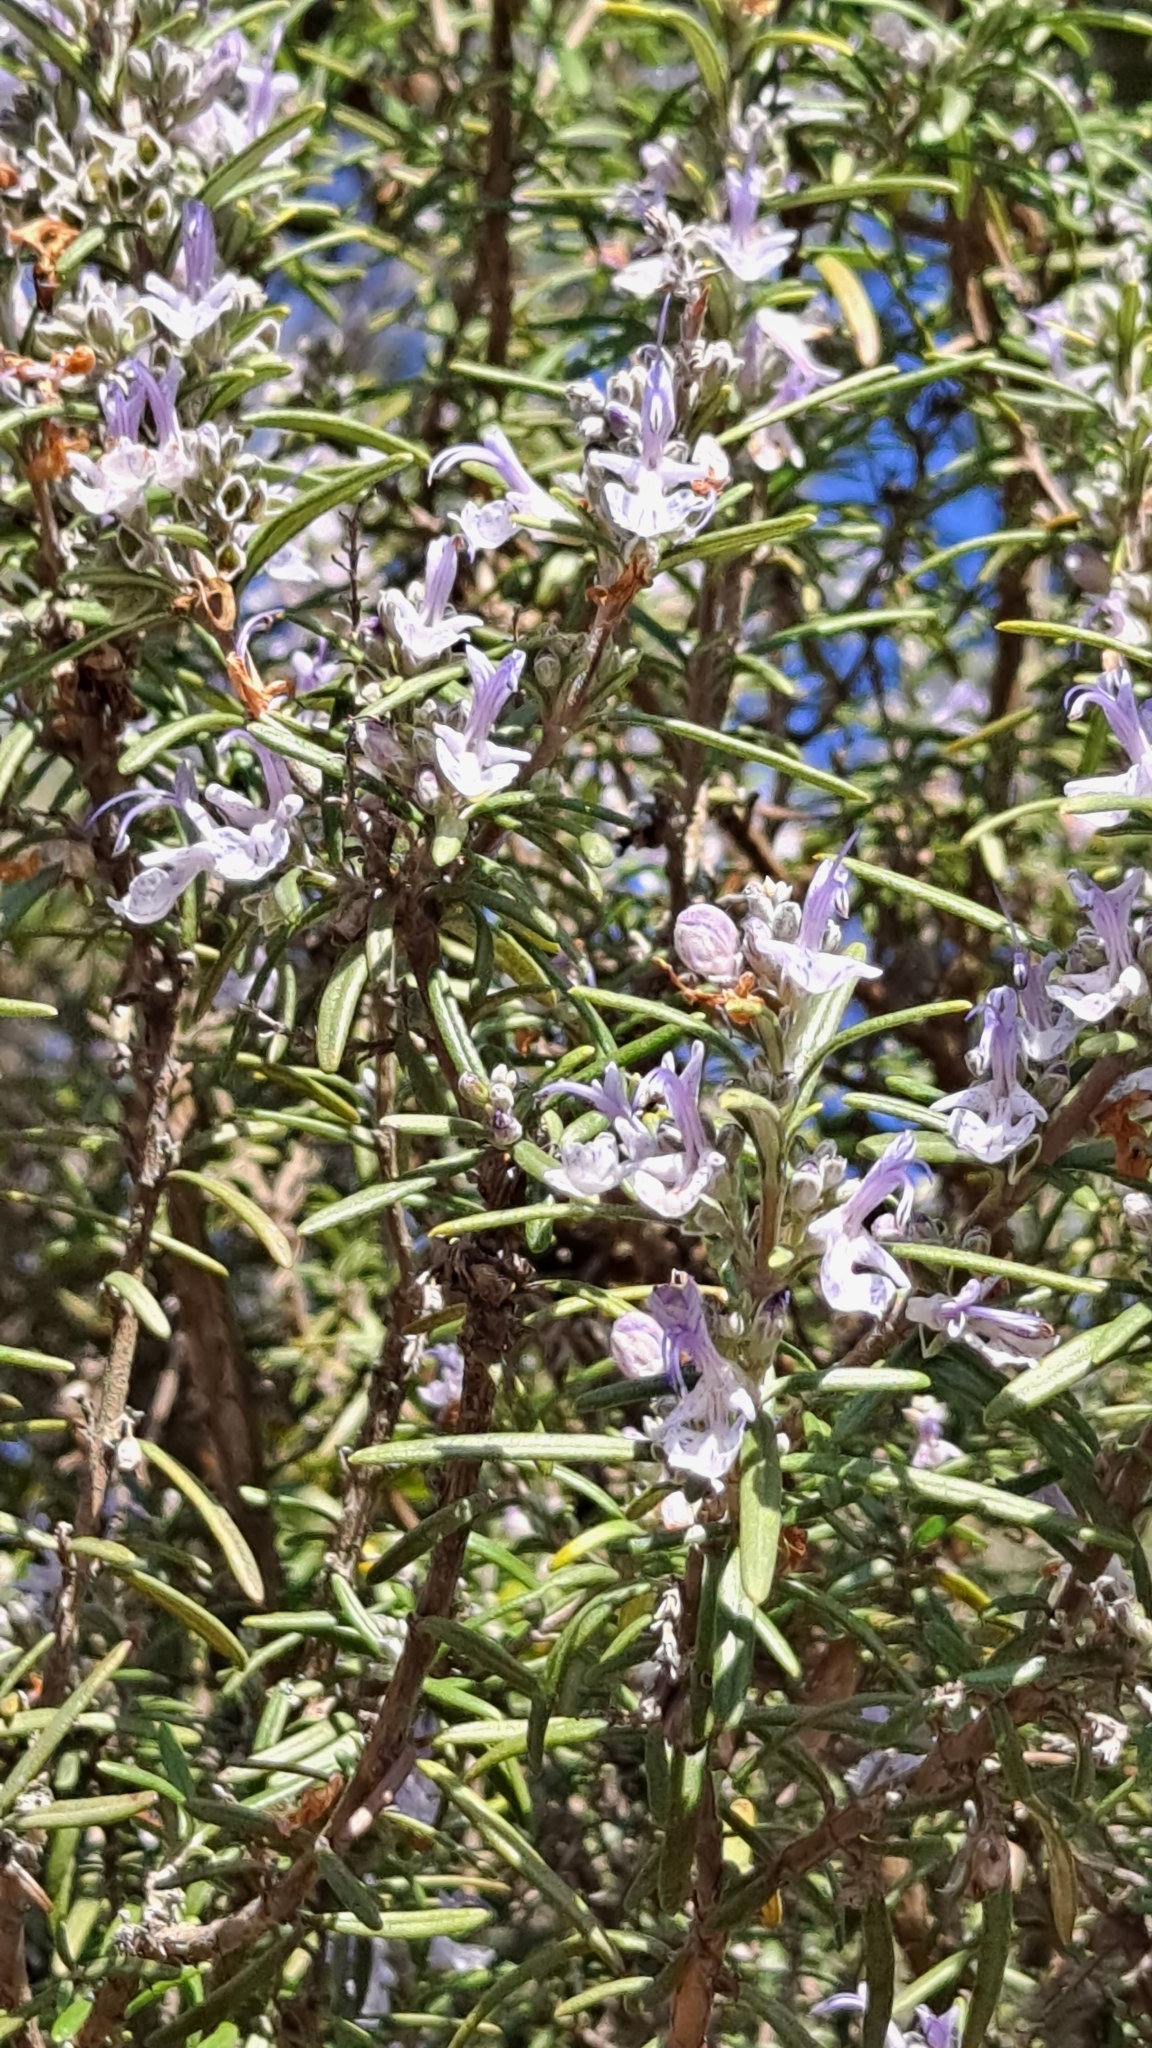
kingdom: Plantae
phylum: Tracheophyta
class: Magnoliopsida
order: Lamiales
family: Lamiaceae
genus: Salvia
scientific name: Salvia rosmarinus
